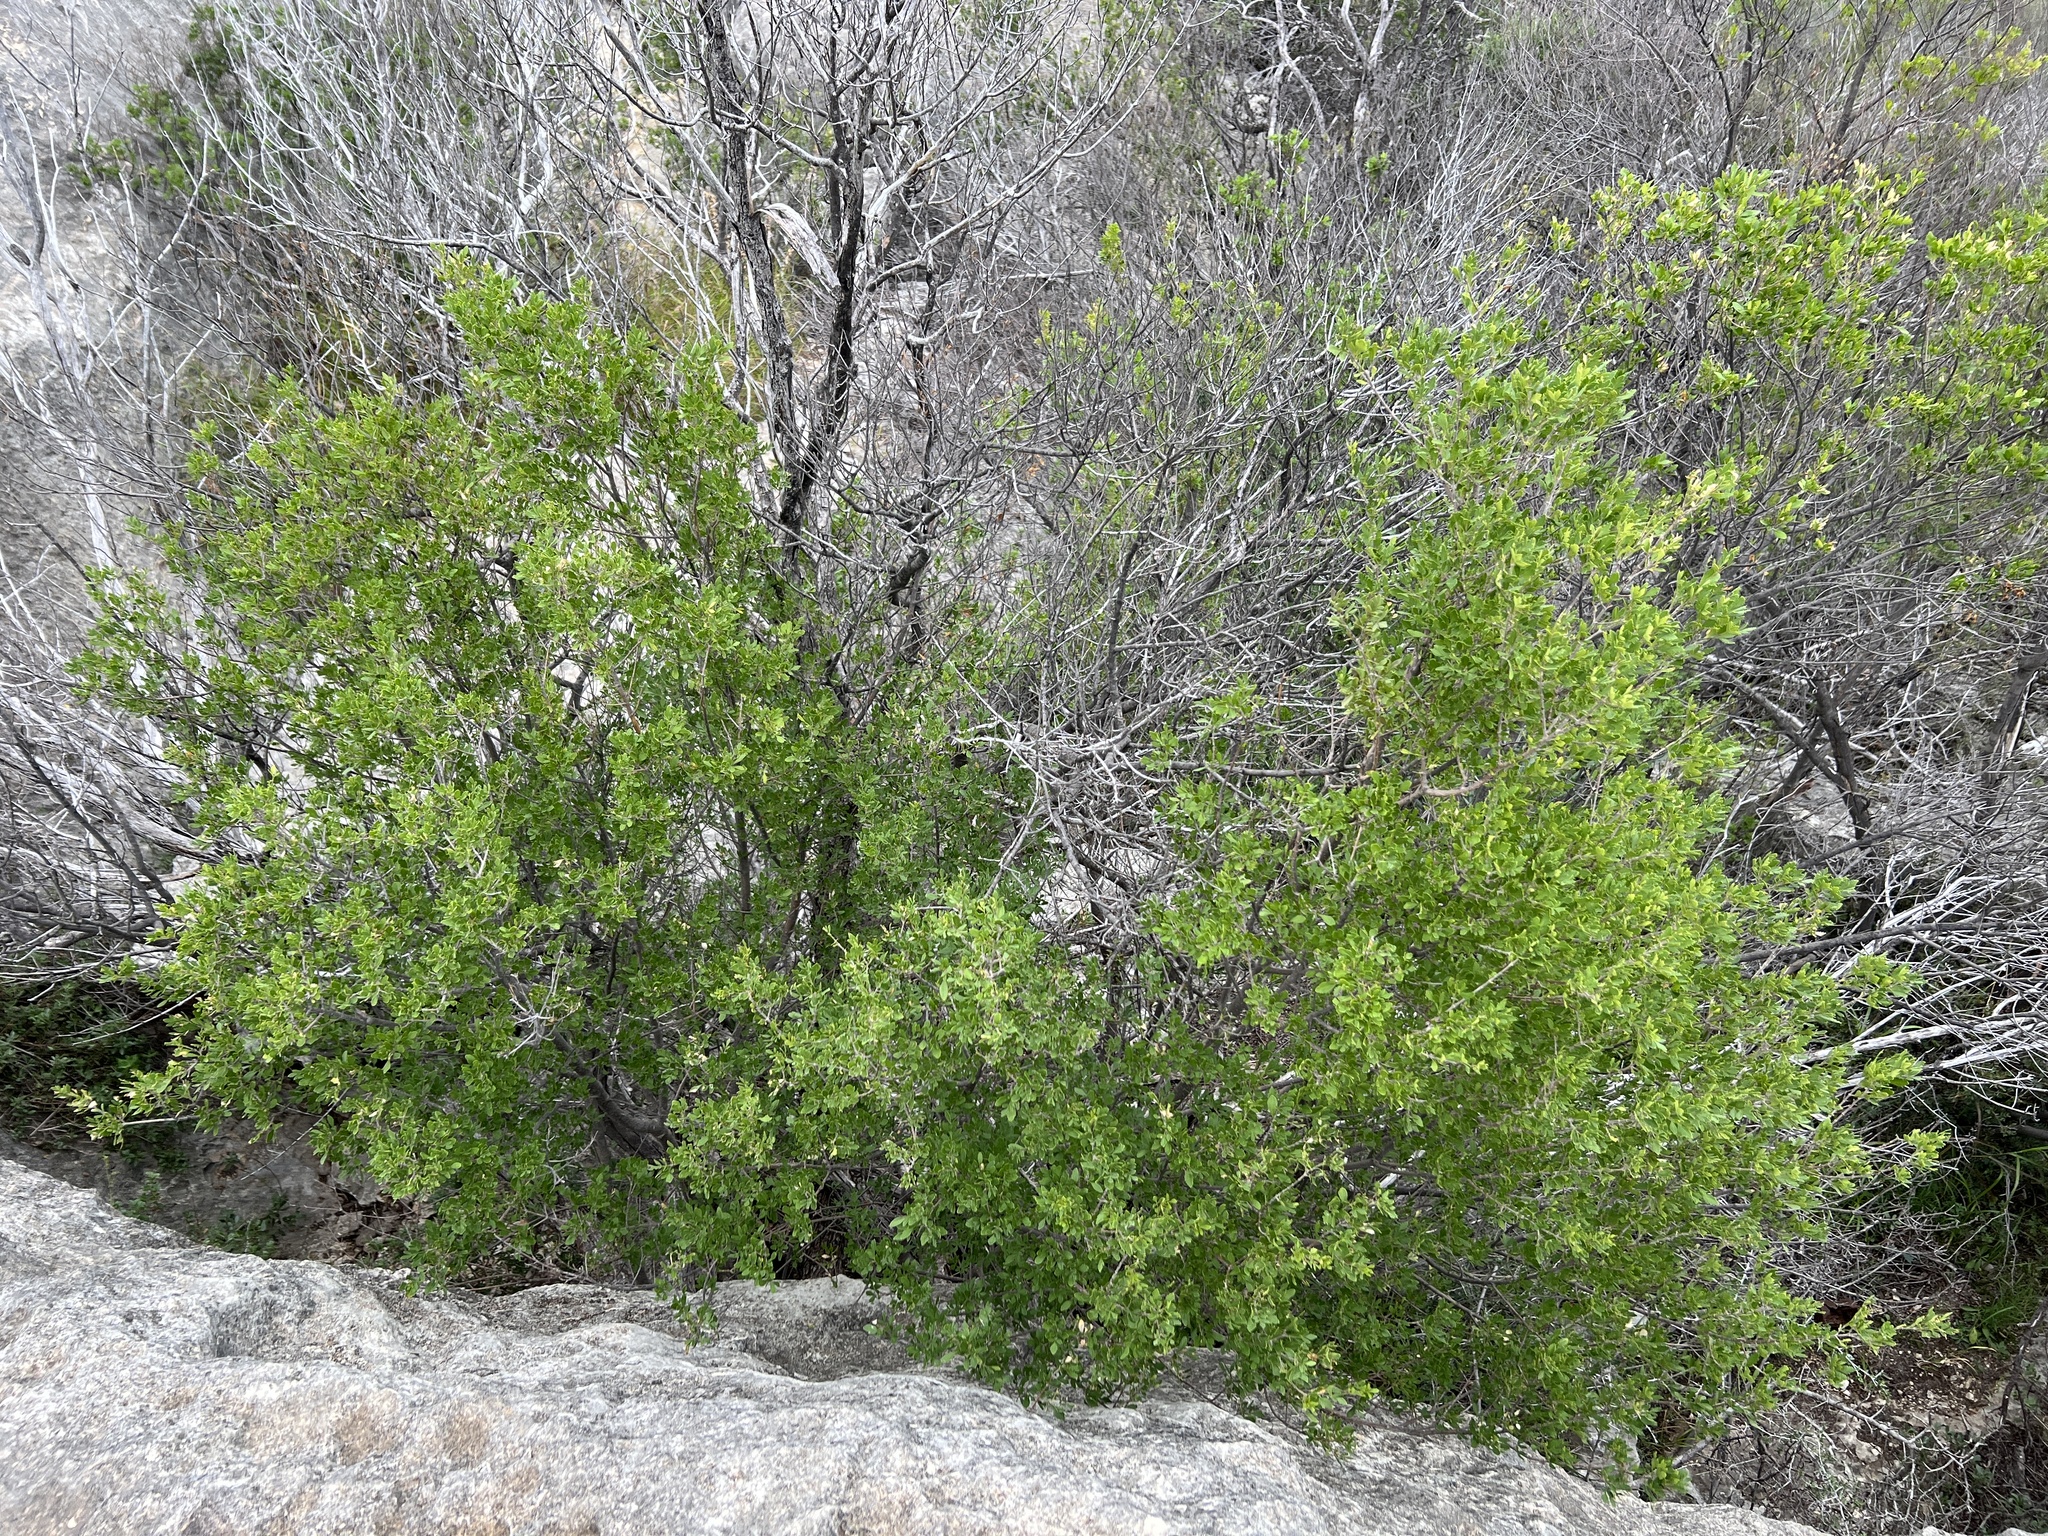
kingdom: Plantae
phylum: Tracheophyta
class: Magnoliopsida
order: Lamiales
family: Oleaceae
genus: Fraxinus
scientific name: Fraxinus greggii
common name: Gregg ash
